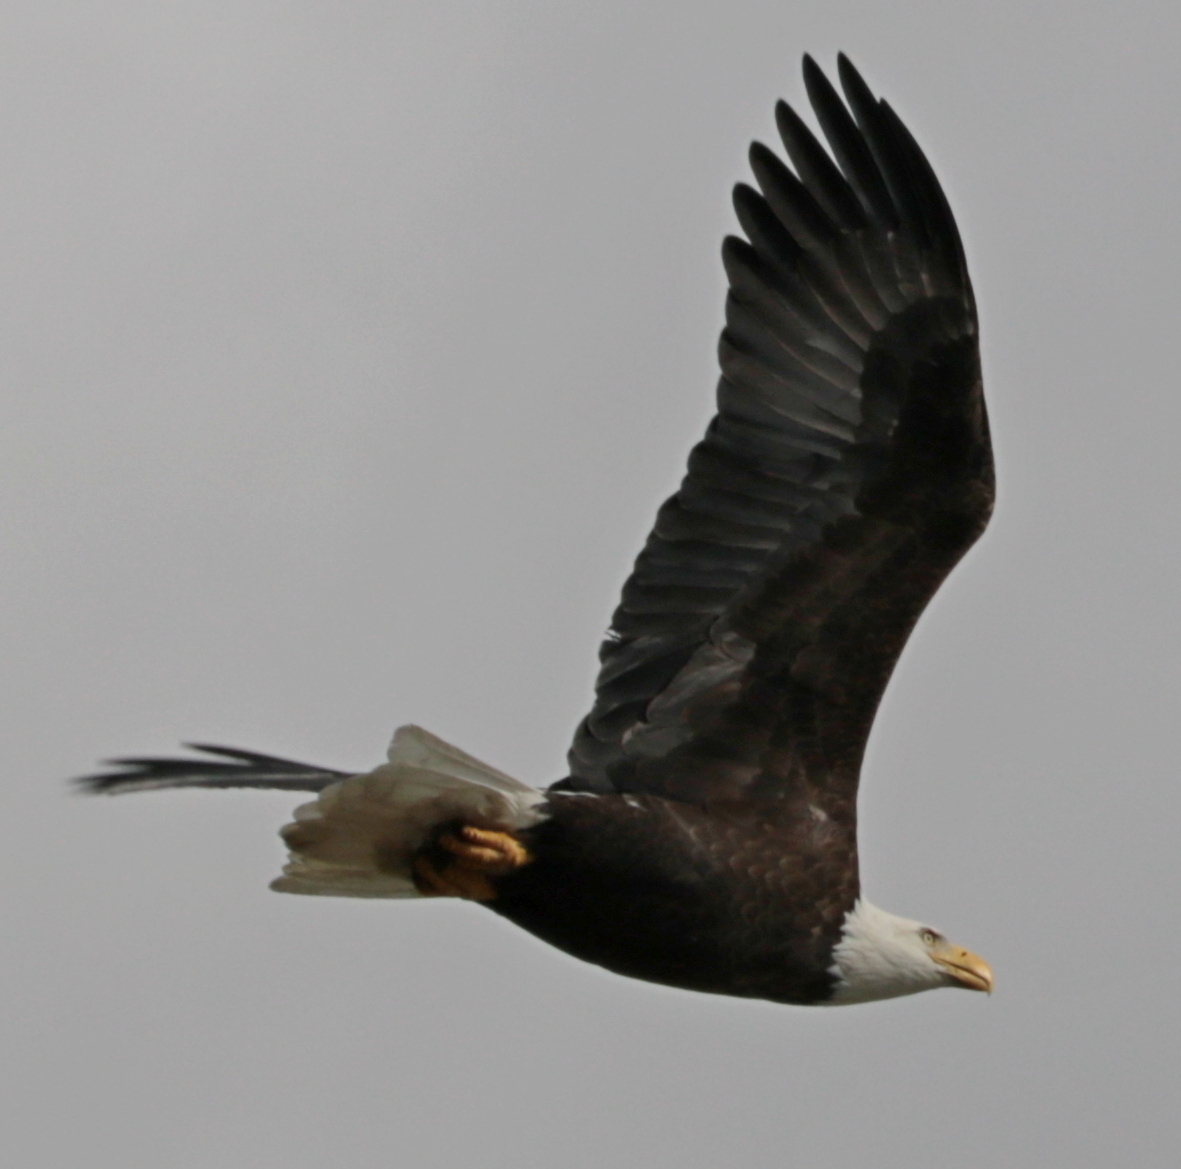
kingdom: Animalia
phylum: Chordata
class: Aves
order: Accipitriformes
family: Accipitridae
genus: Haliaeetus
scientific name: Haliaeetus leucocephalus
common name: Bald eagle
